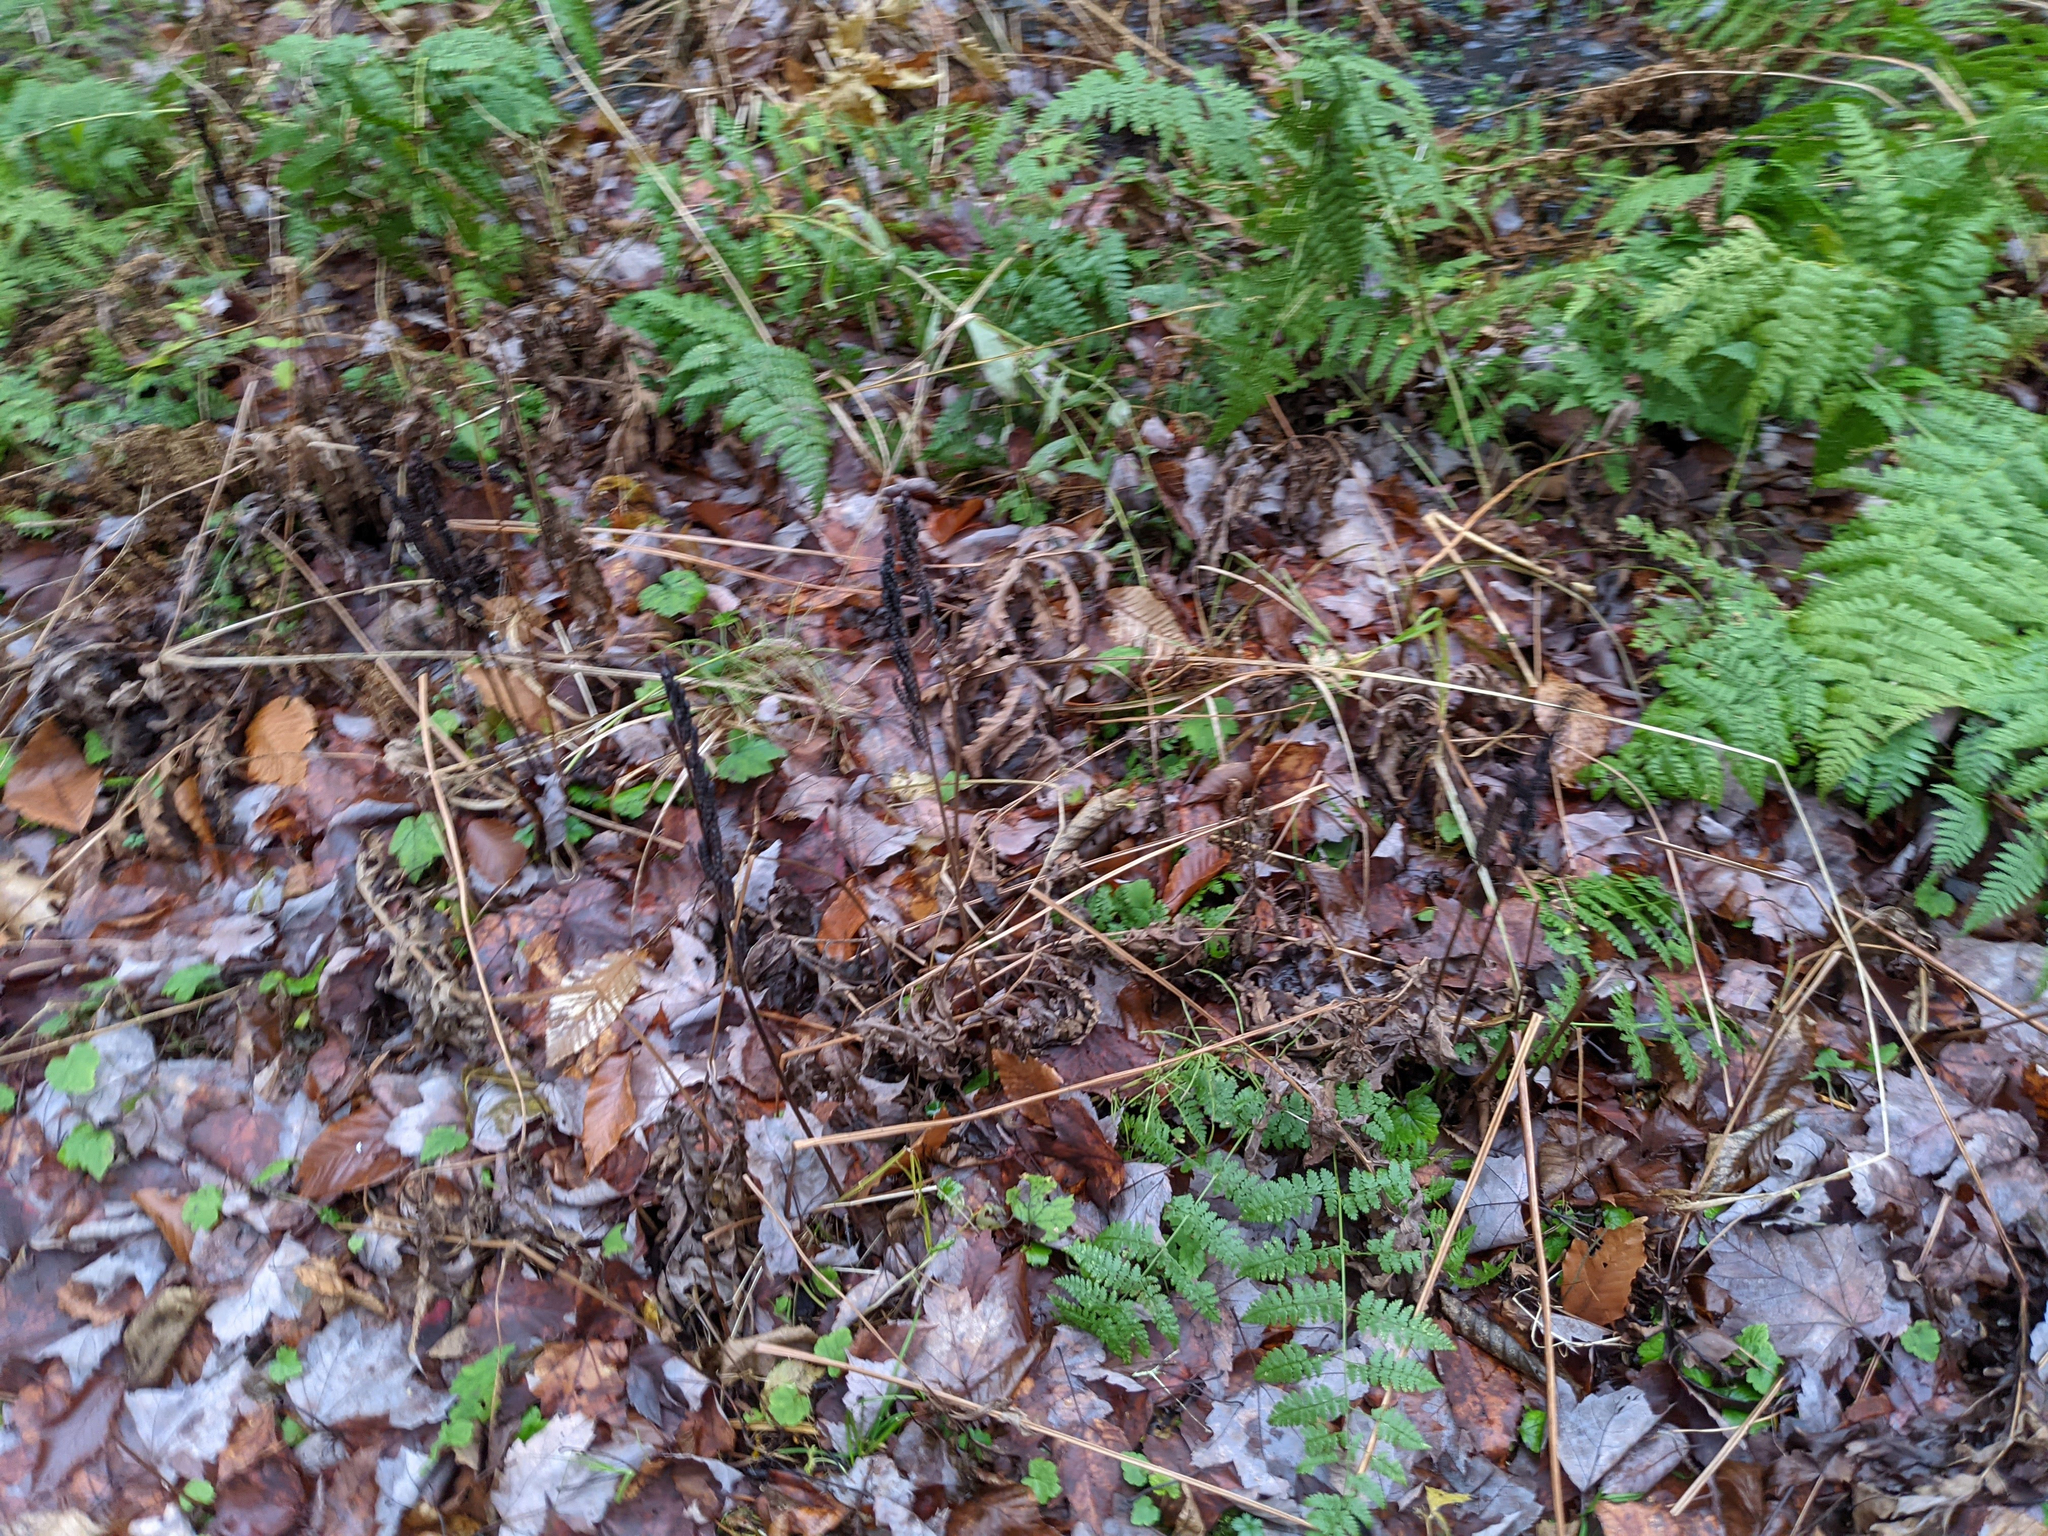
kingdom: Plantae
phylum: Tracheophyta
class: Polypodiopsida
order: Polypodiales
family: Onocleaceae
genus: Onoclea
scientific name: Onoclea sensibilis
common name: Sensitive fern
